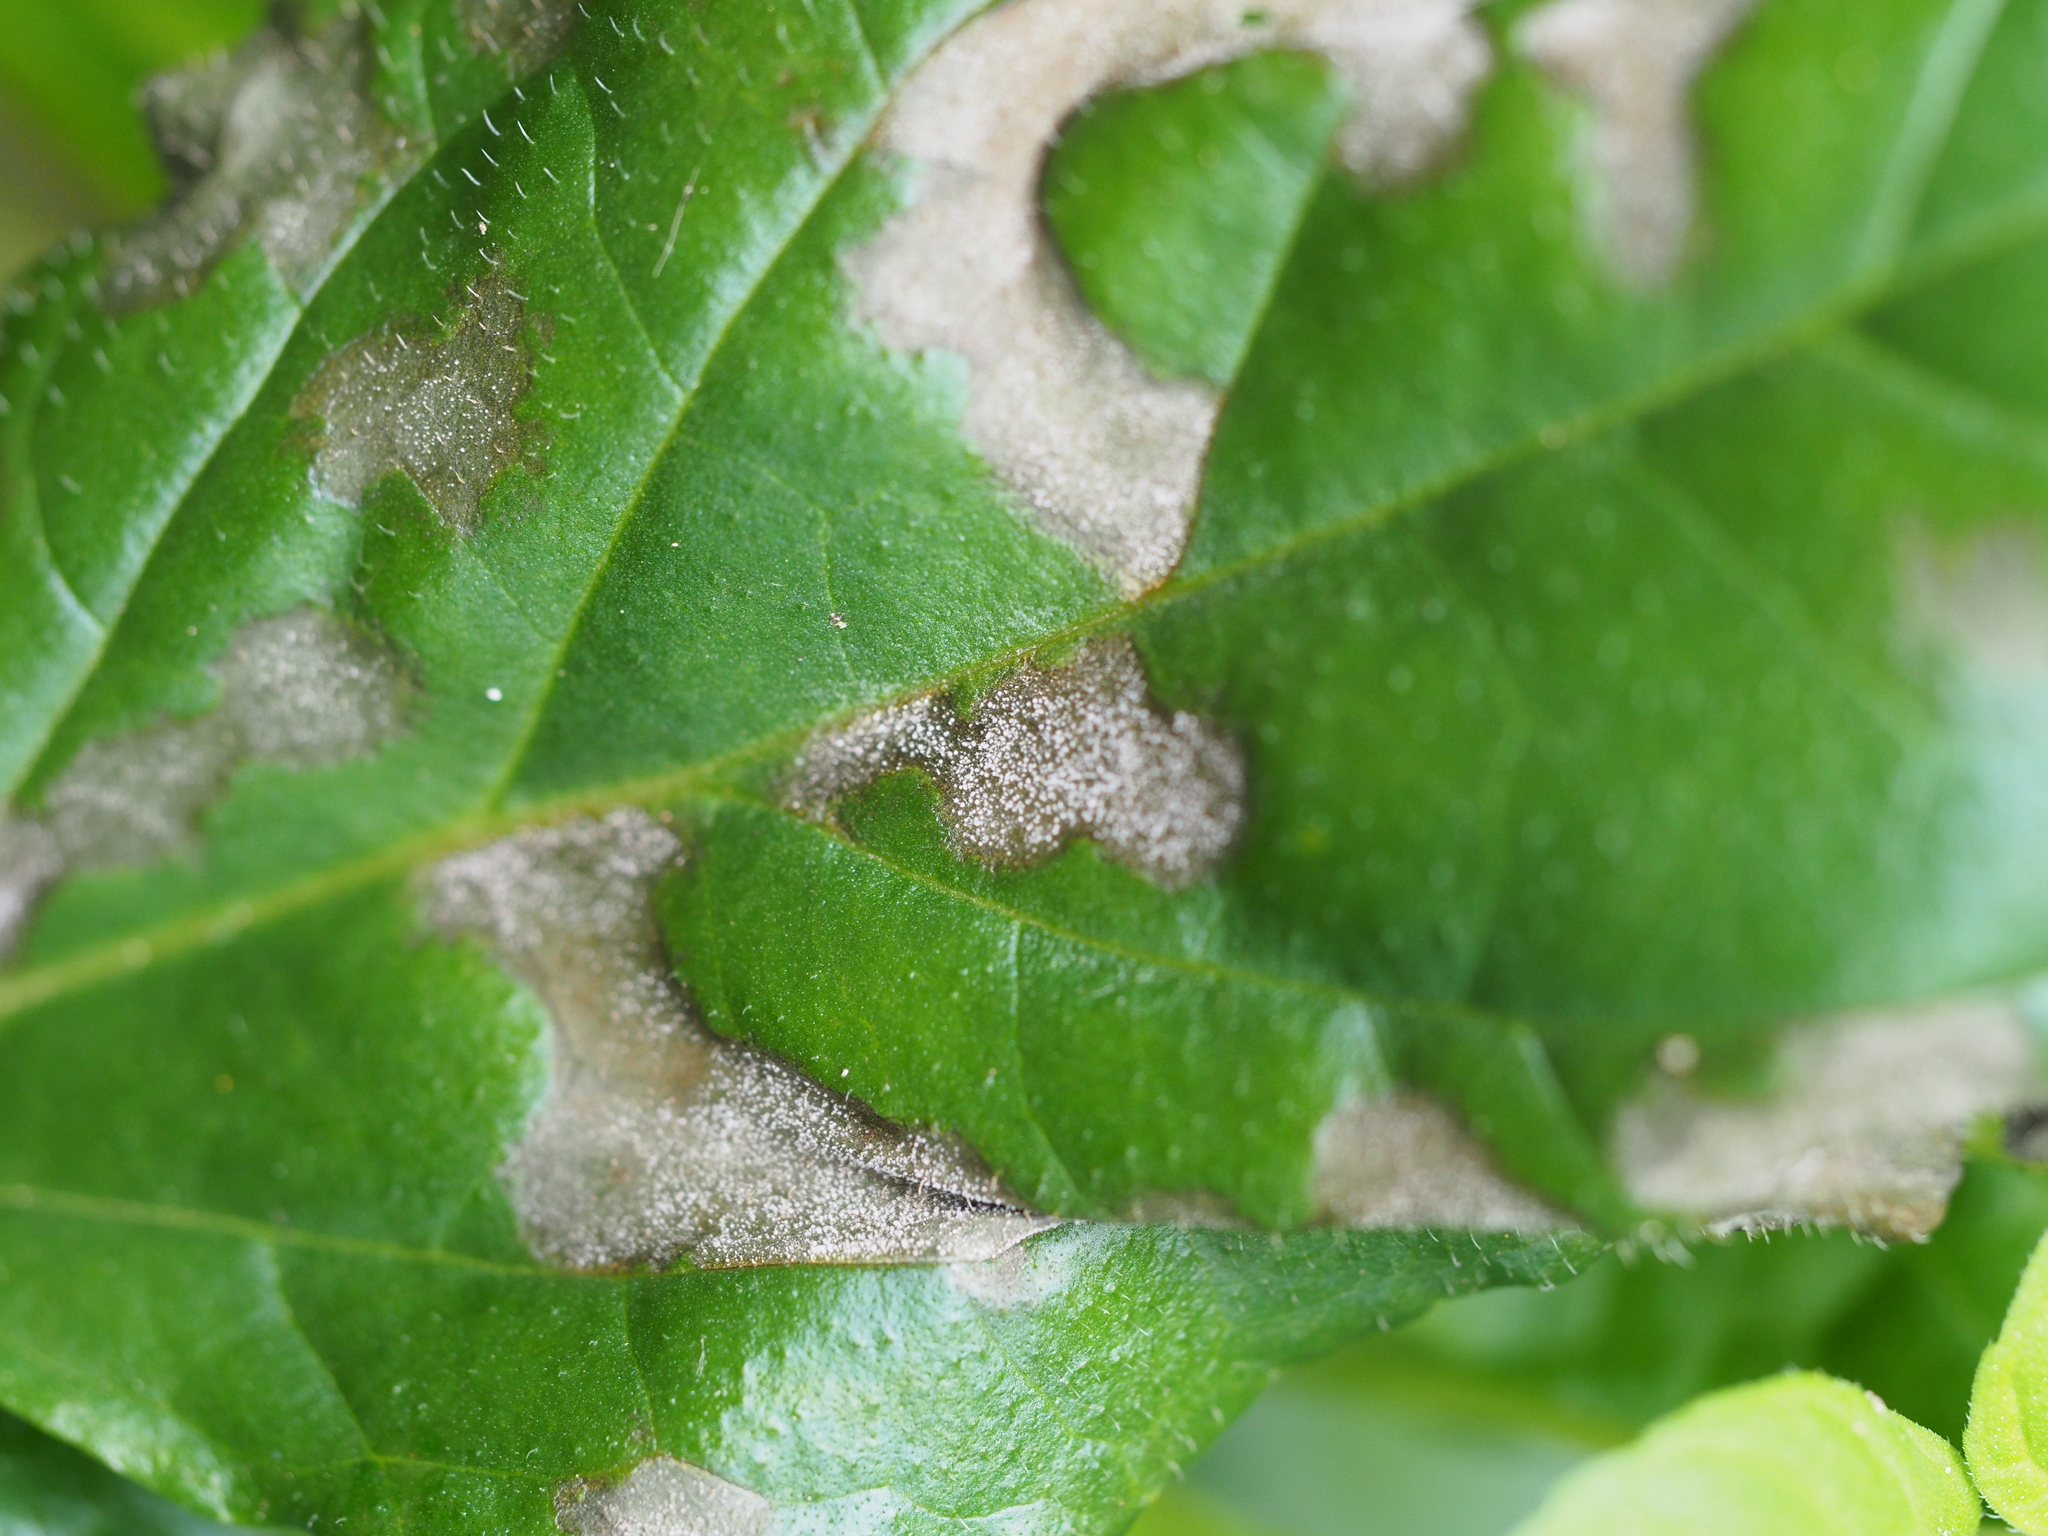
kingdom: Fungi
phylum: Ascomycota
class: Dothideomycetes
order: Mycosphaerellales
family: Mycosphaerellaceae
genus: Ramularia
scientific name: Ramularia ajugae
